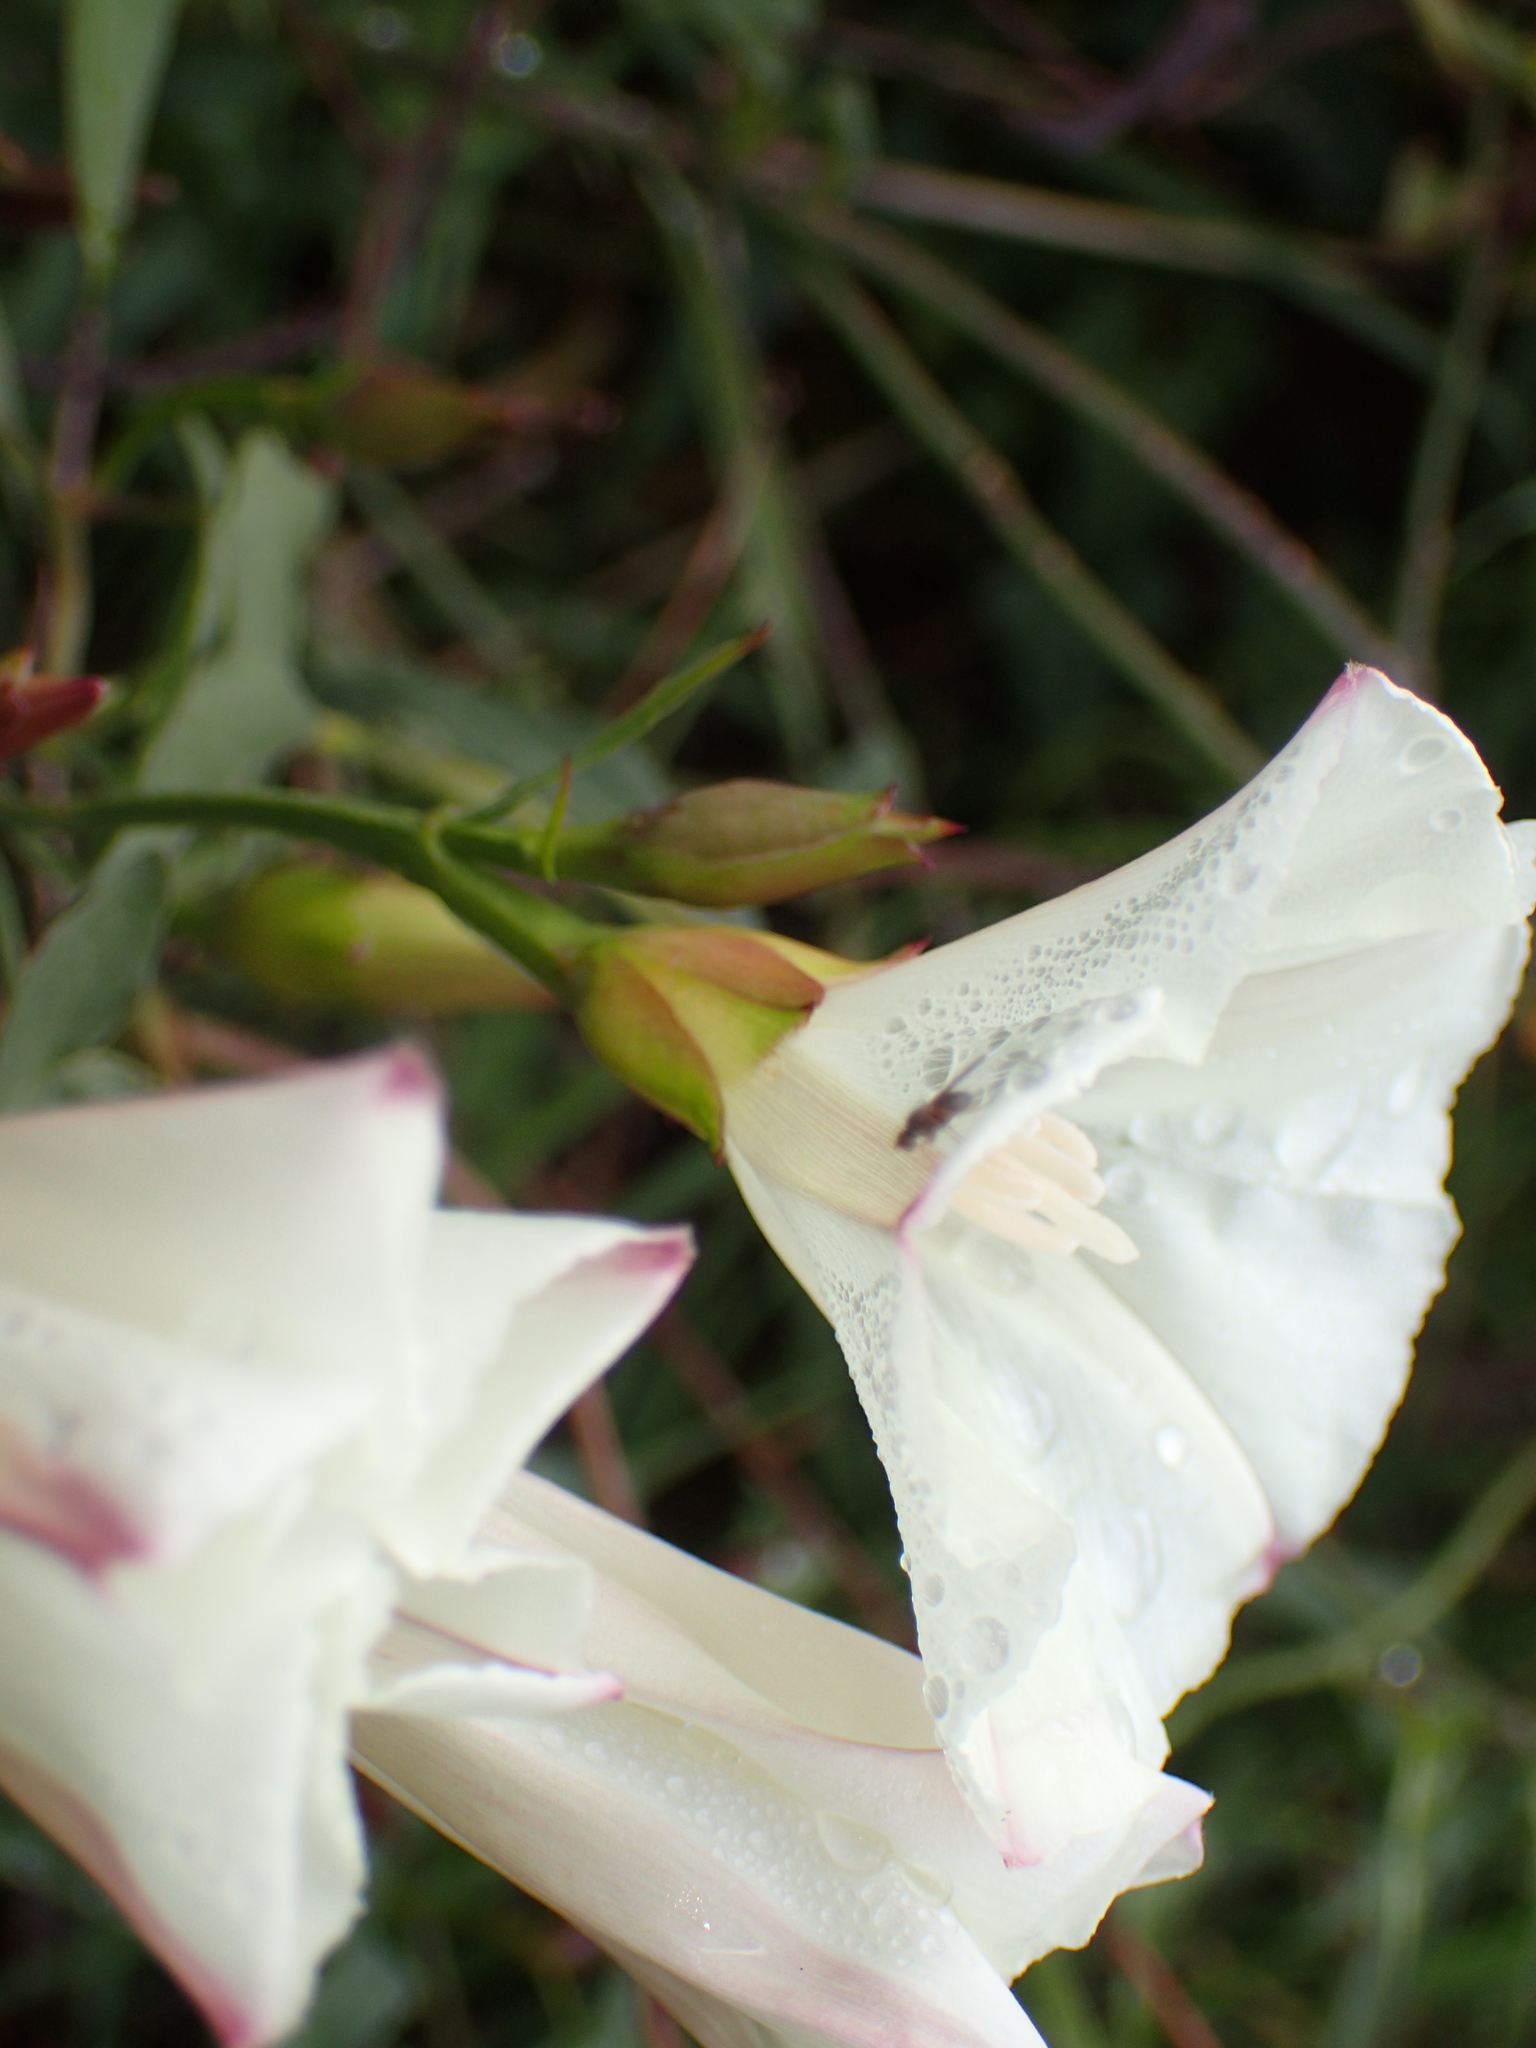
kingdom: Plantae
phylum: Tracheophyta
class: Magnoliopsida
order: Solanales
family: Convolvulaceae
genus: Calystegia
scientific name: Calystegia purpurata
